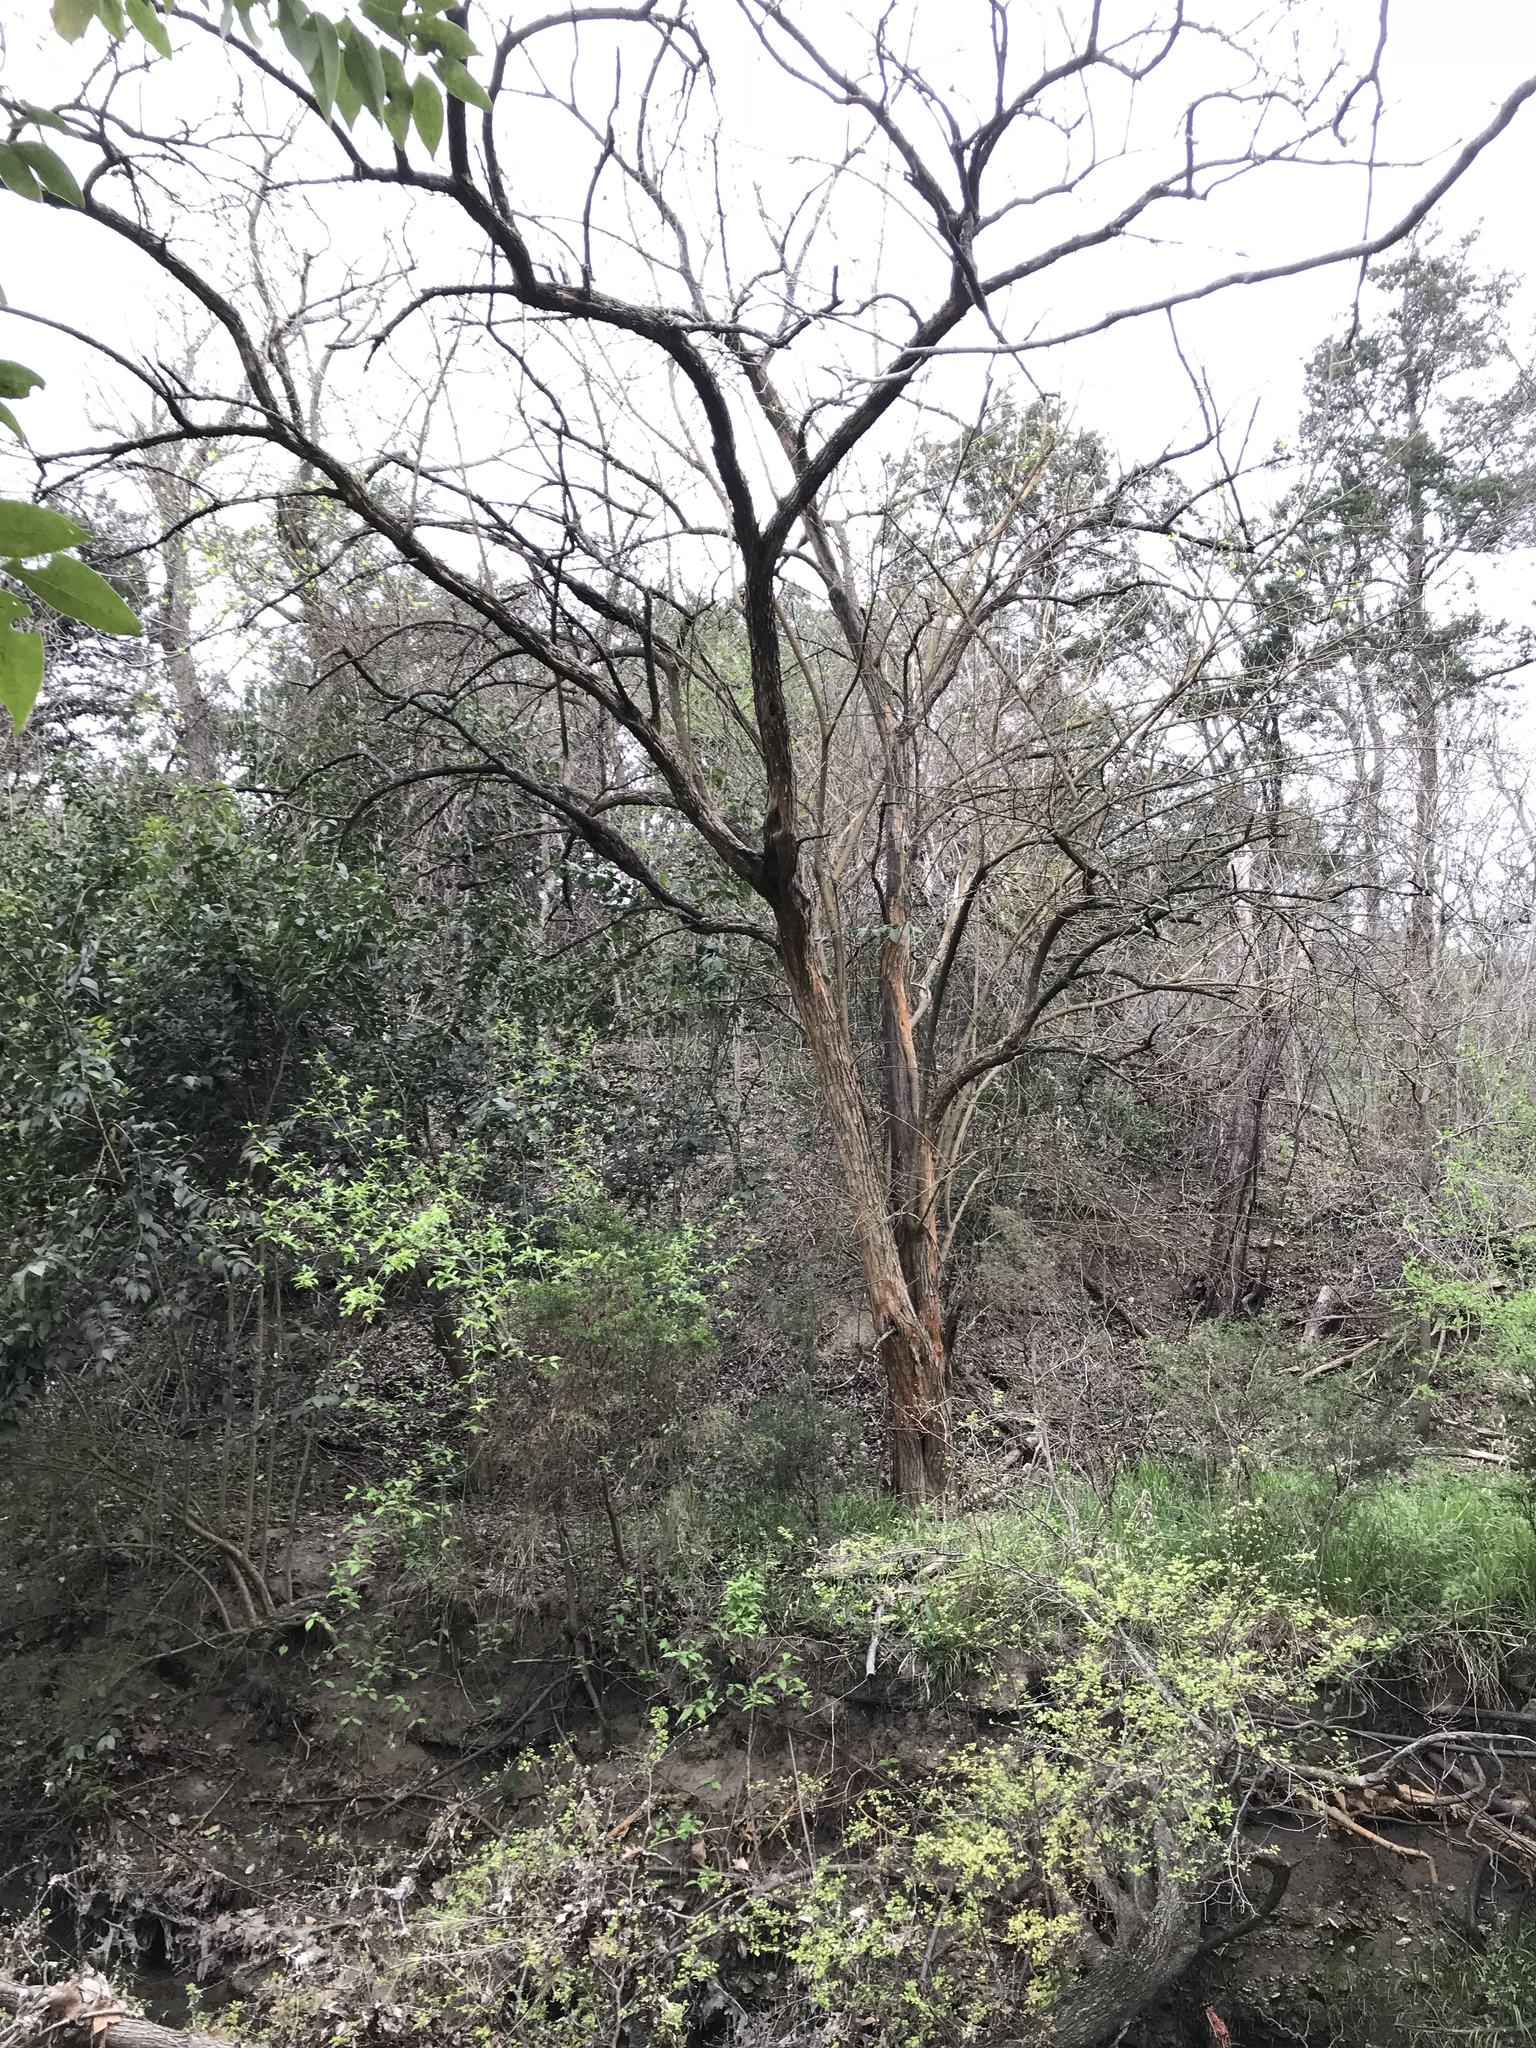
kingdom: Plantae
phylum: Tracheophyta
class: Magnoliopsida
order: Rosales
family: Moraceae
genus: Maclura
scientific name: Maclura pomifera
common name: Osage-orange
